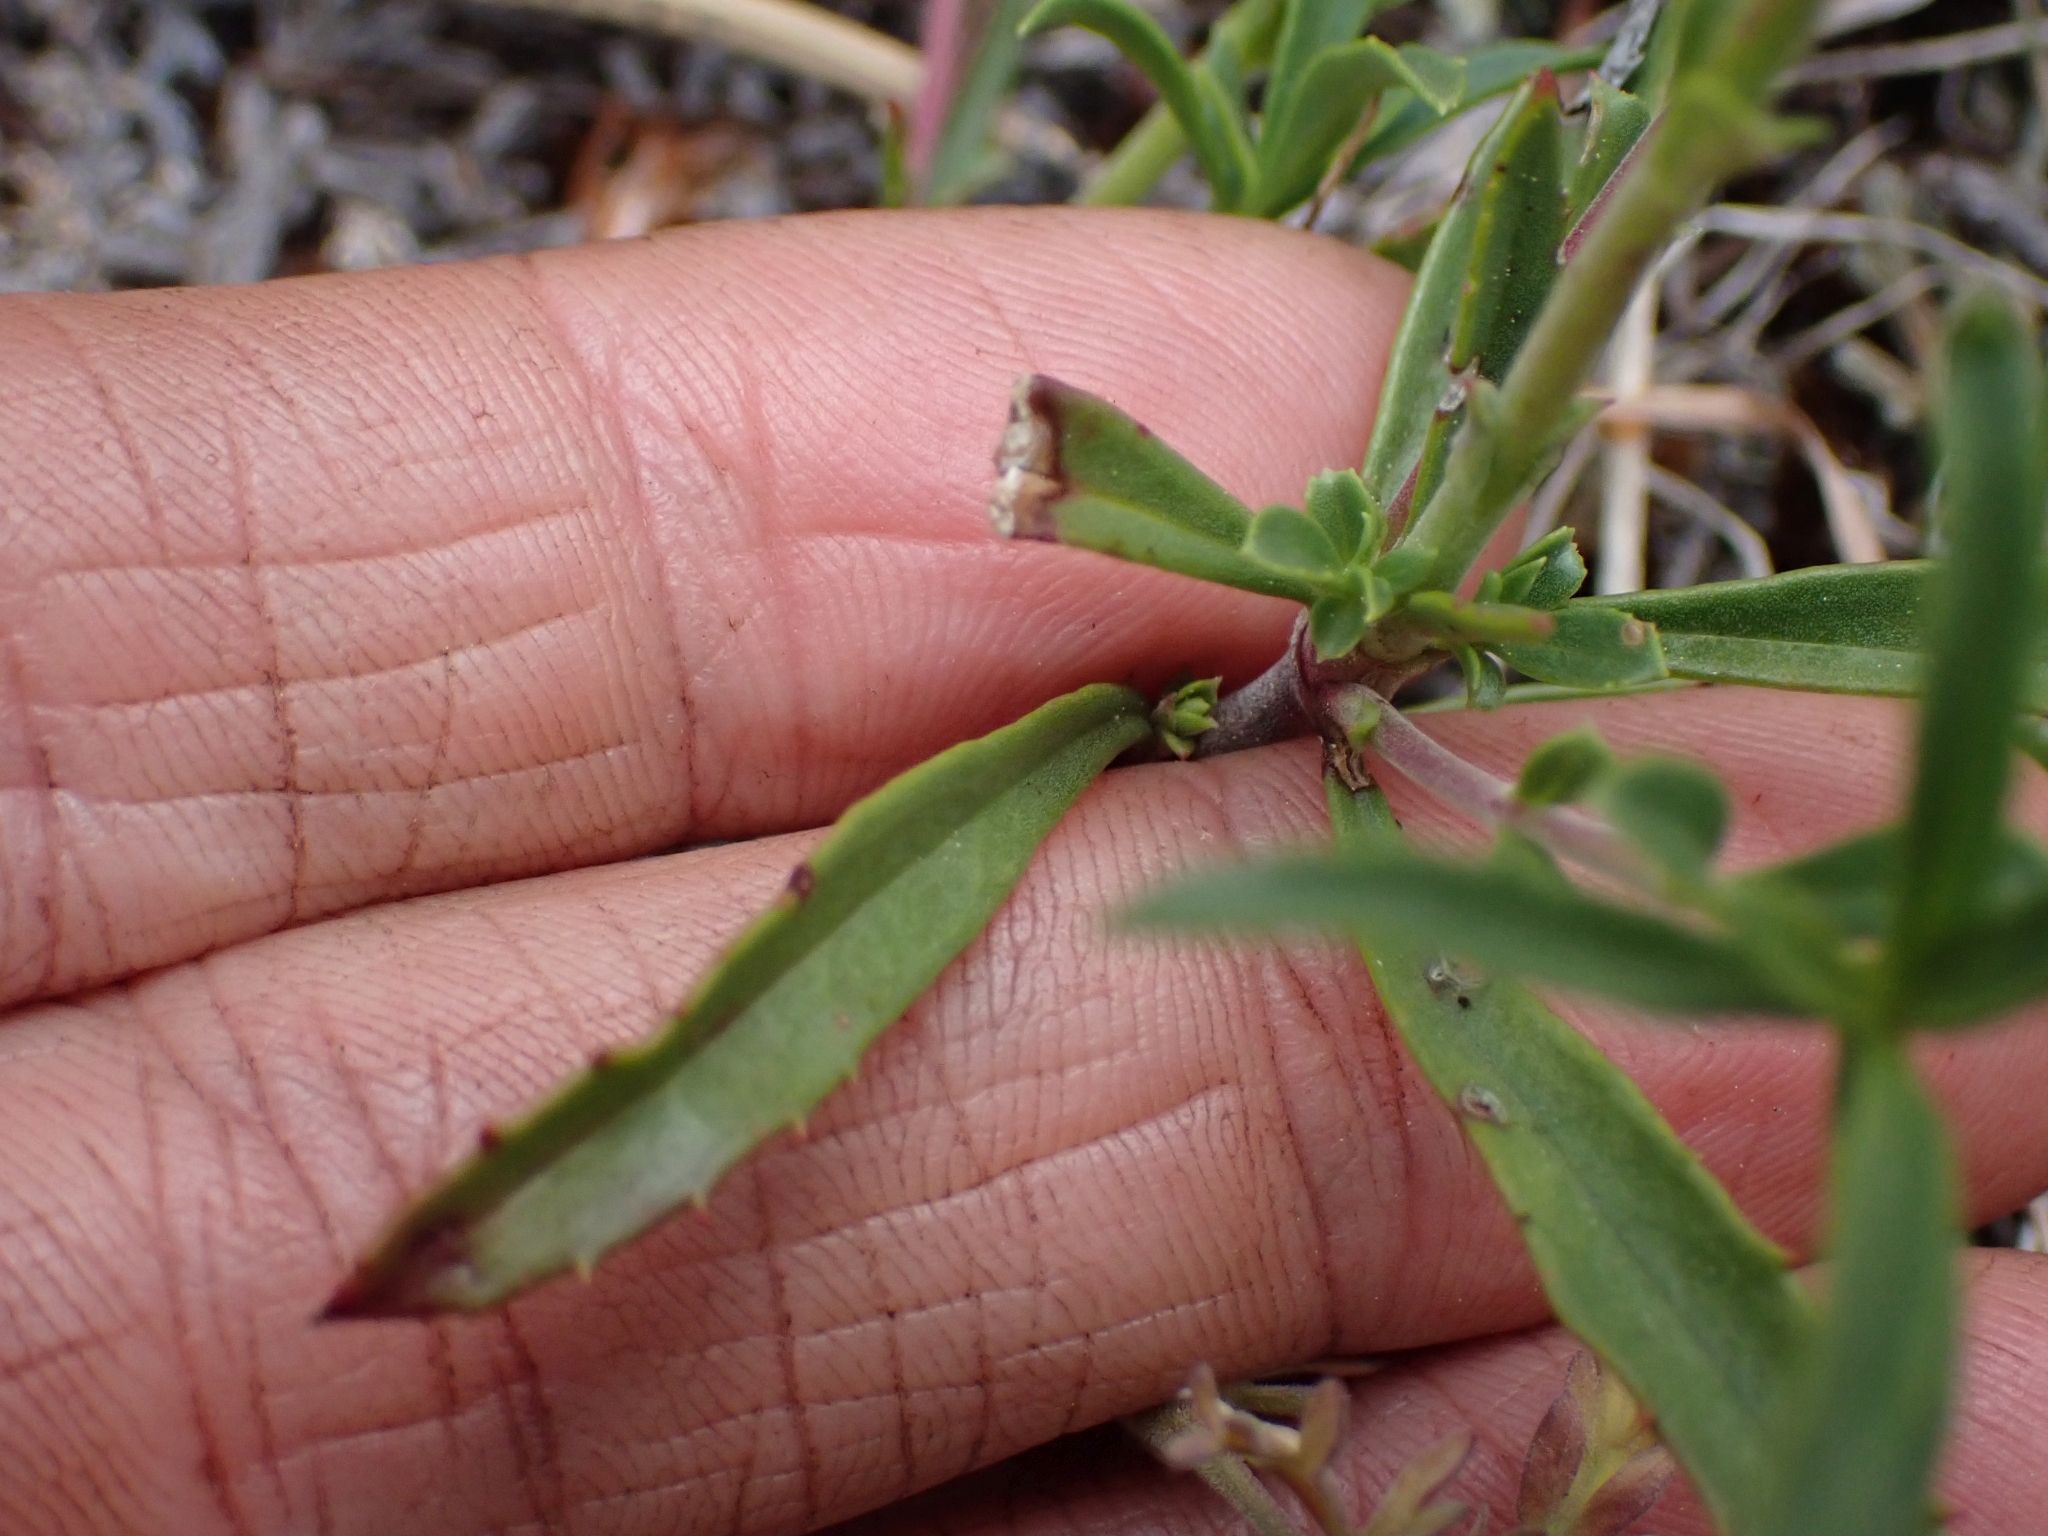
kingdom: Plantae
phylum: Tracheophyta
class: Magnoliopsida
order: Lamiales
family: Plantaginaceae
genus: Penstemon
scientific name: Penstemon fruticosus
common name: Bush penstemon
